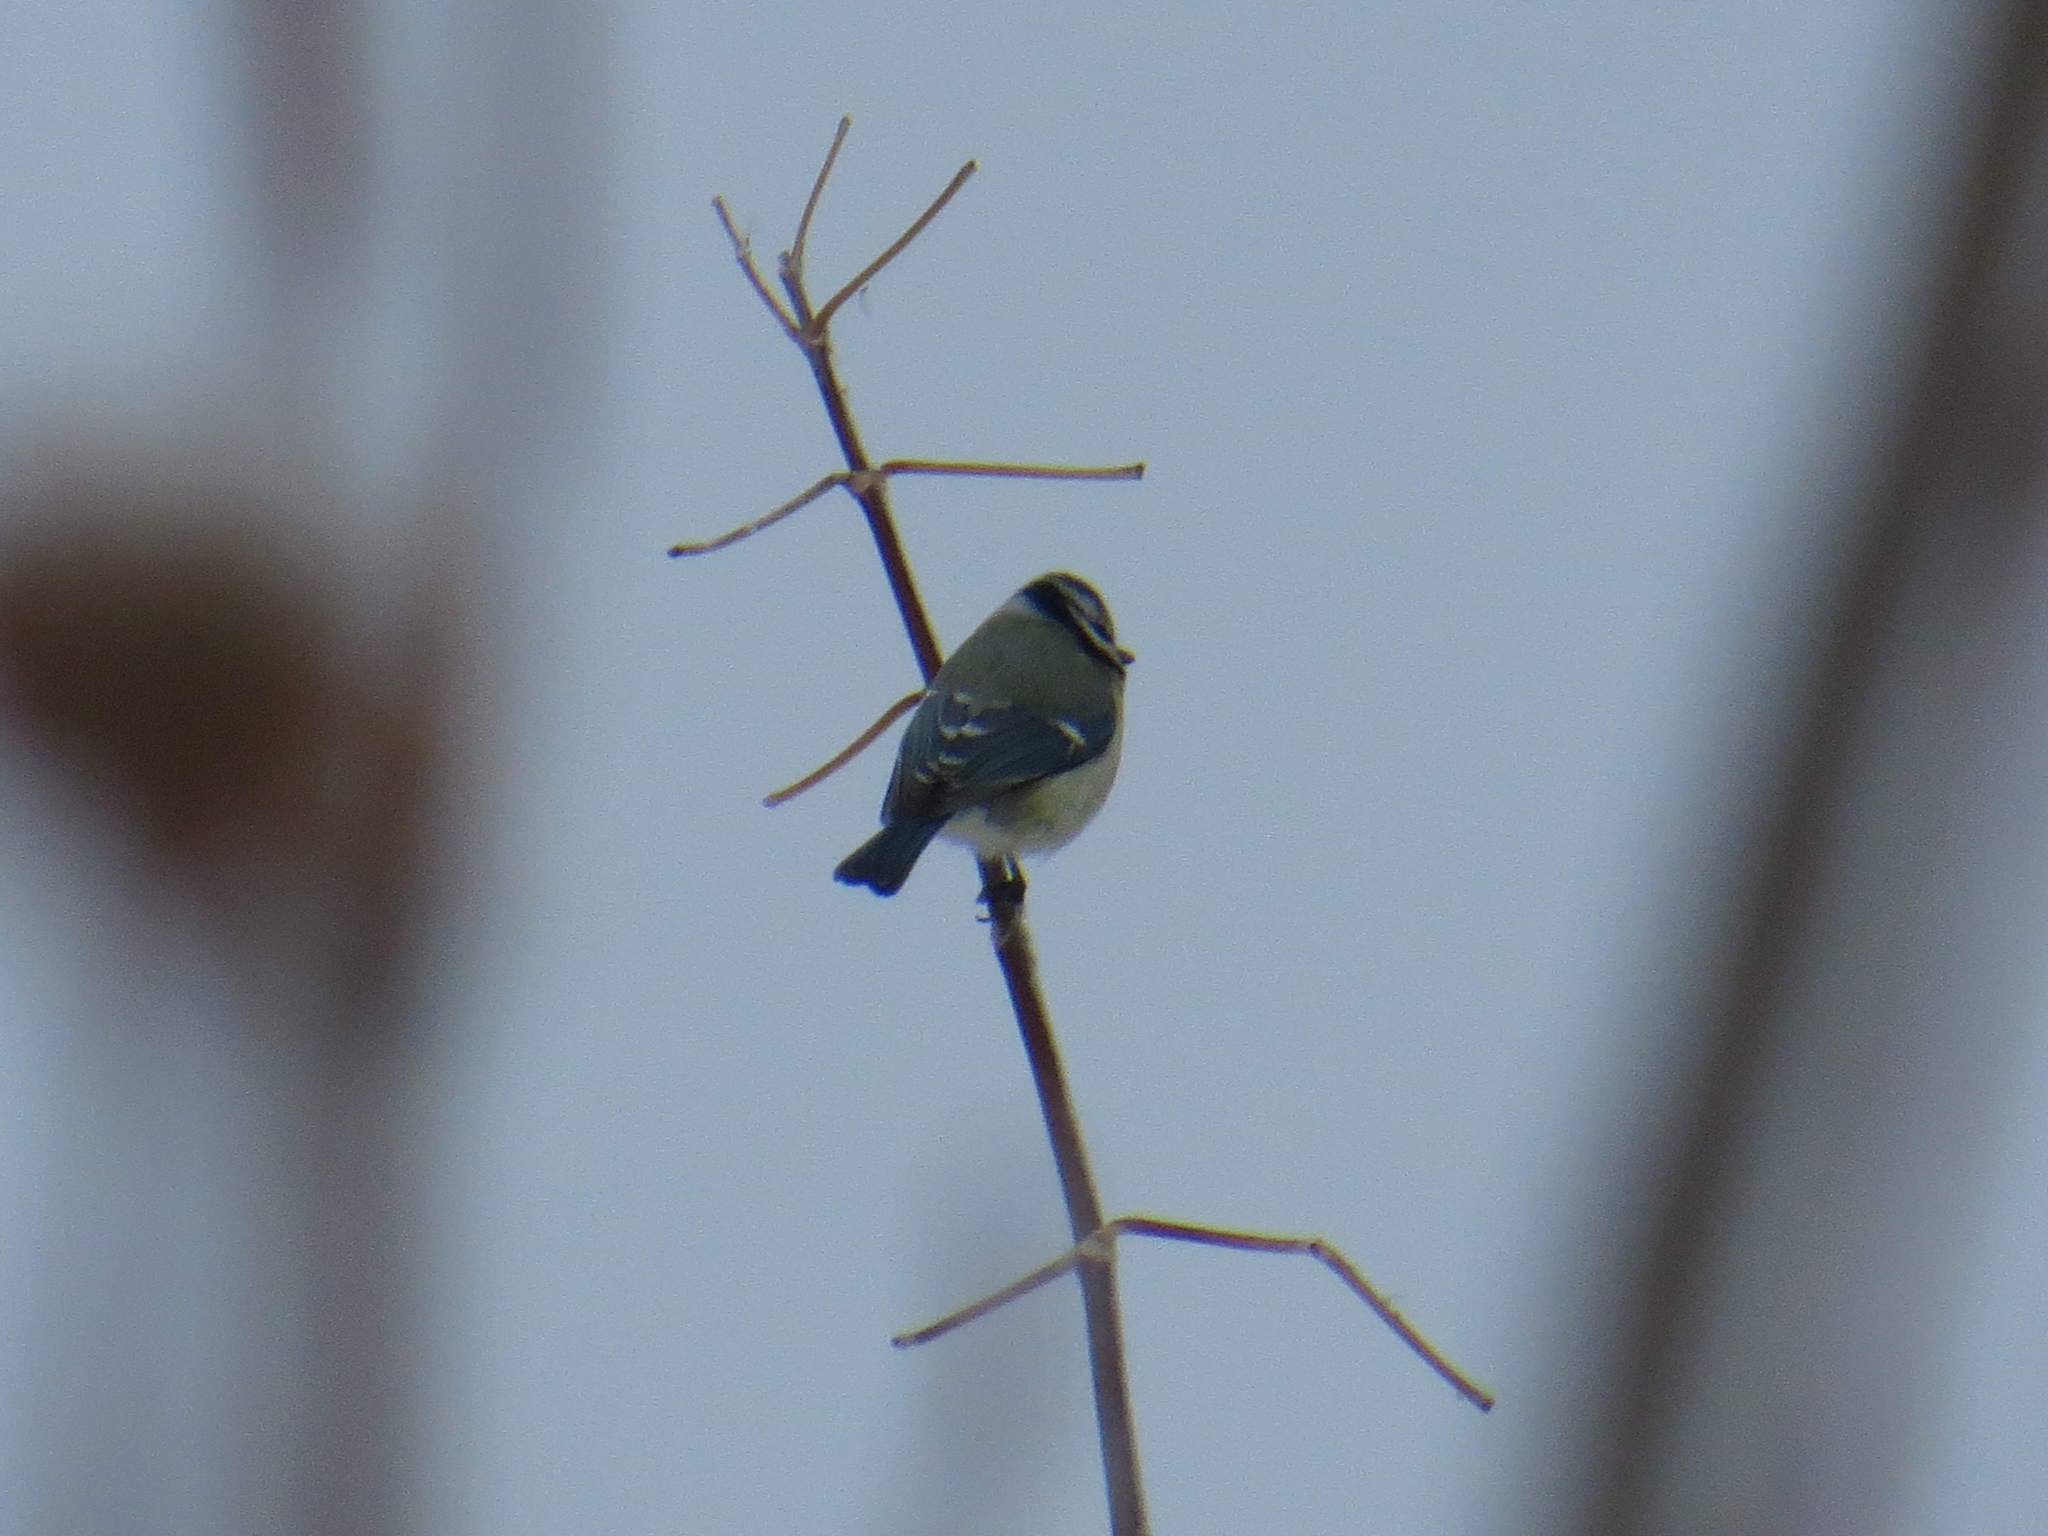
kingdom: Animalia
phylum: Chordata
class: Aves
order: Passeriformes
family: Paridae
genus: Cyanistes
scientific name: Cyanistes caeruleus
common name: Eurasian blue tit
